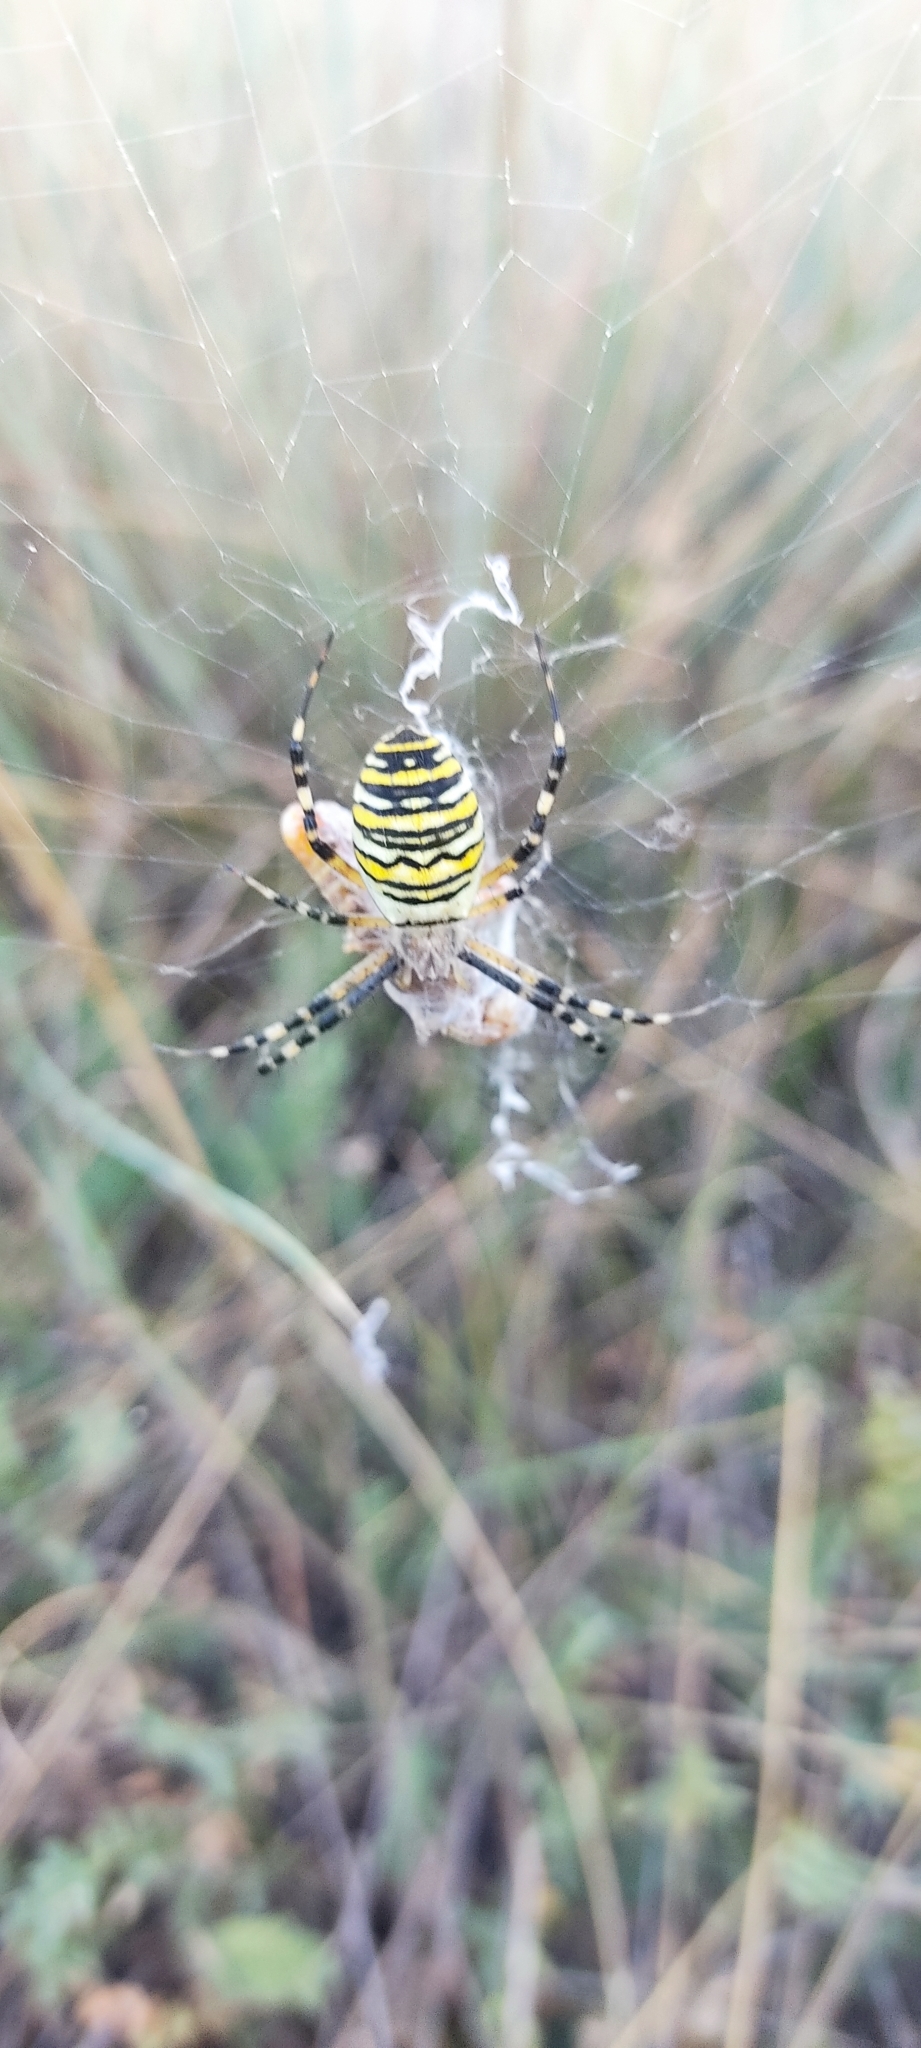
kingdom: Animalia
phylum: Arthropoda
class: Arachnida
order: Araneae
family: Araneidae
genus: Argiope
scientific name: Argiope bruennichi
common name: Wasp spider
